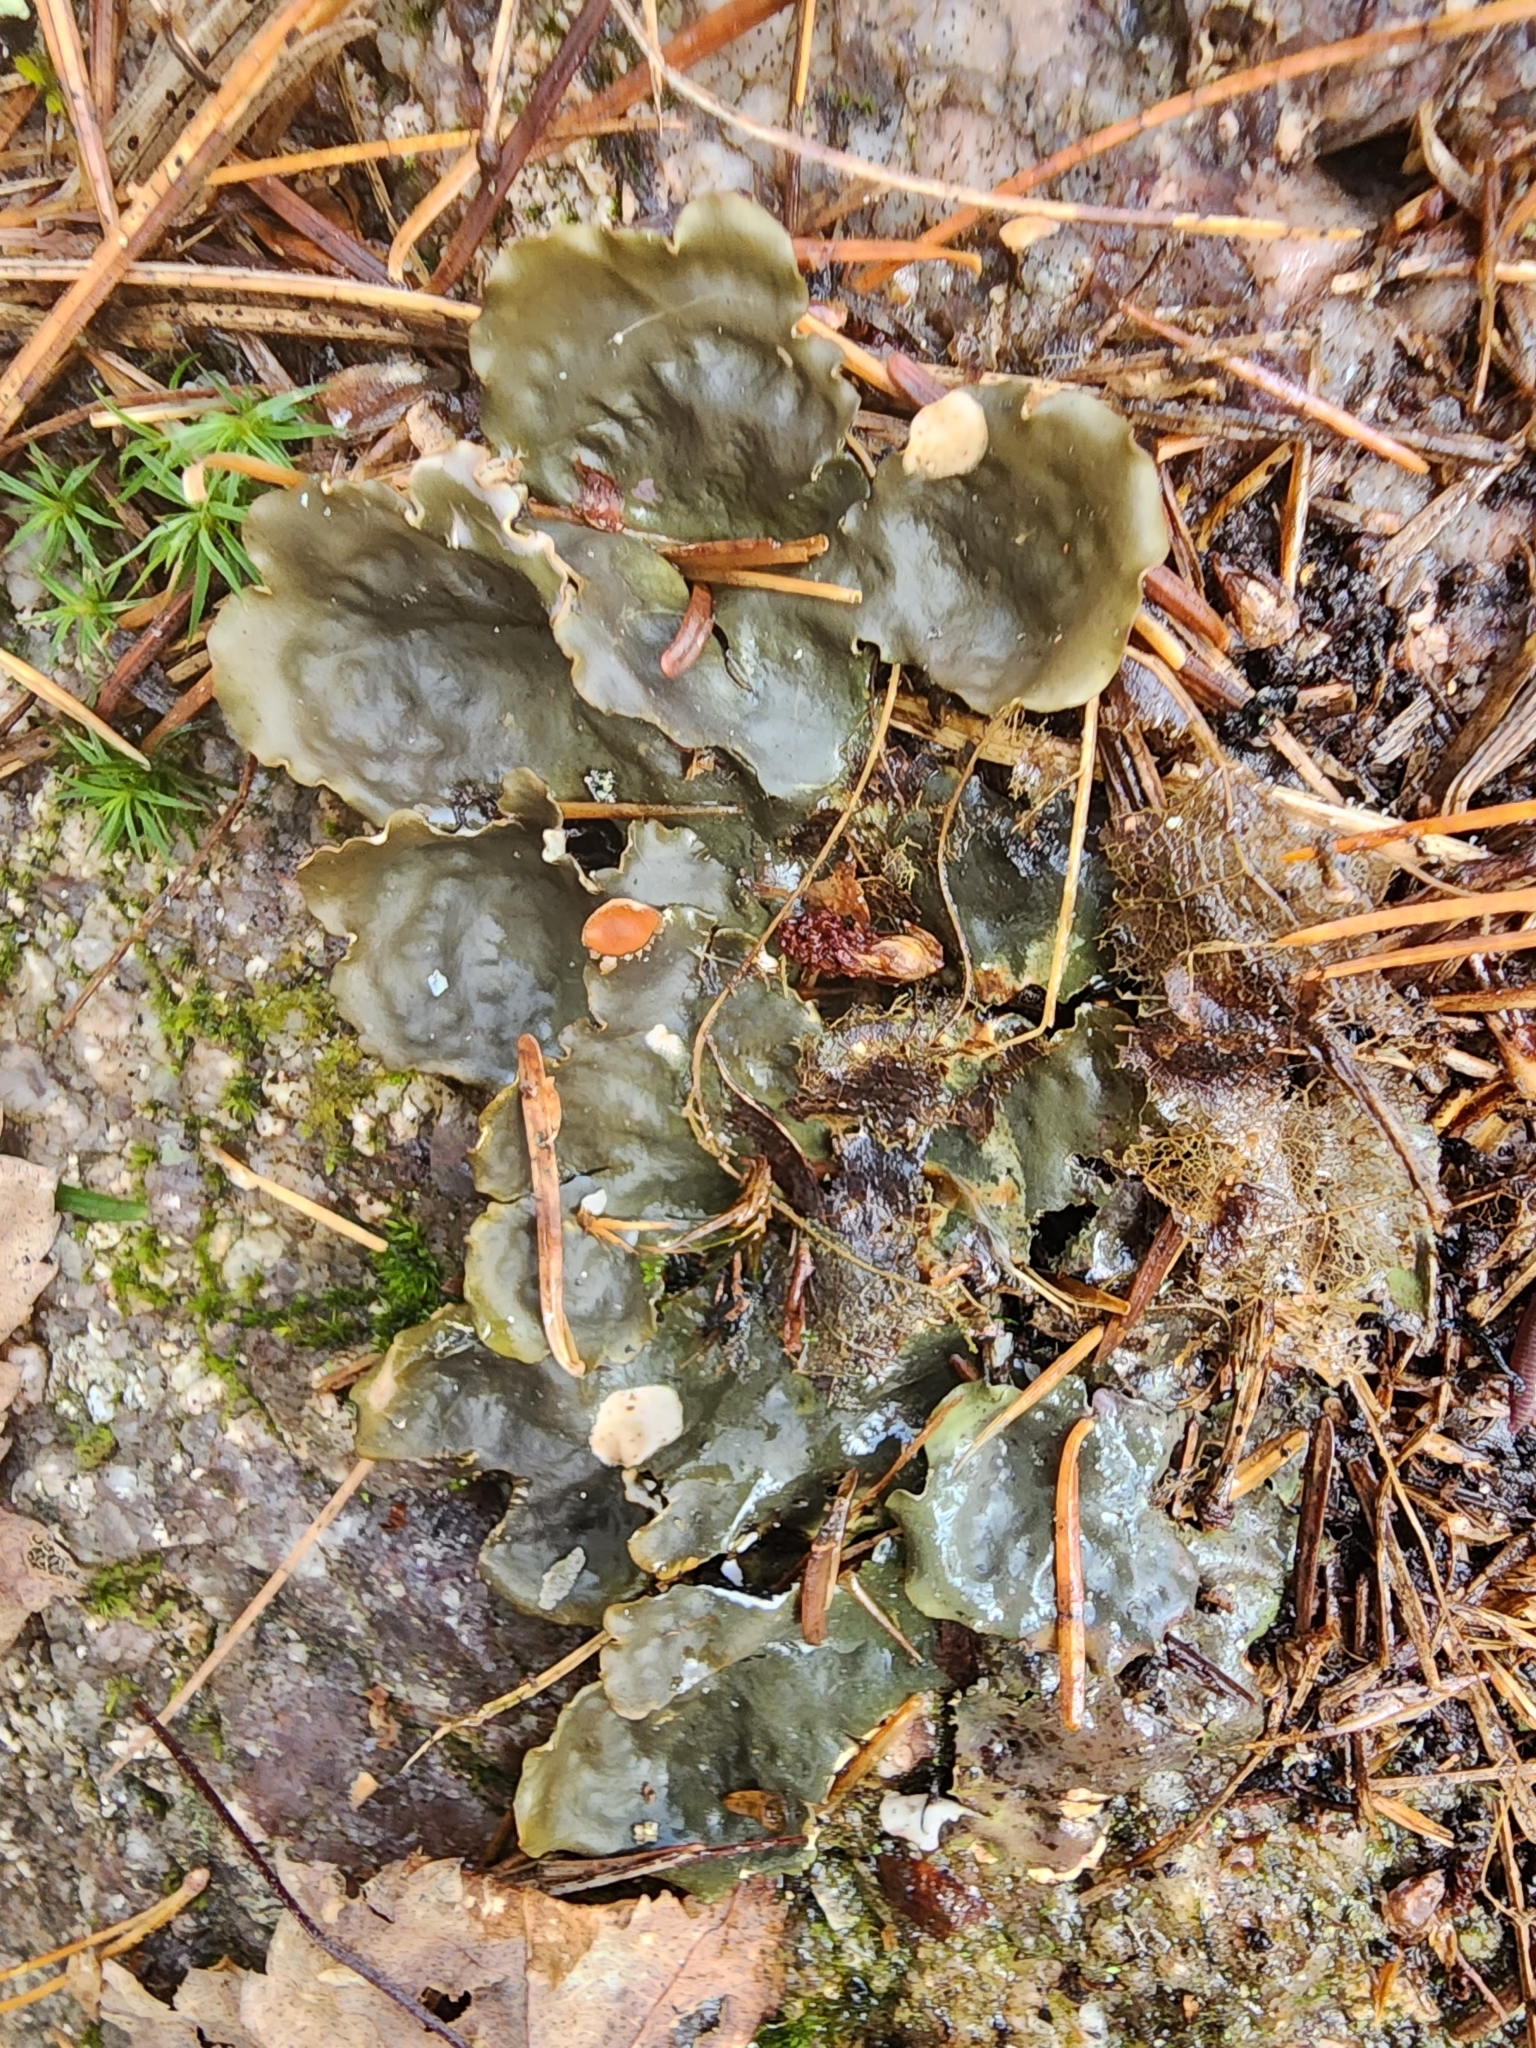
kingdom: Fungi
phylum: Ascomycota
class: Lecanoromycetes
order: Peltigerales
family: Peltigeraceae
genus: Peltigera
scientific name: Peltigera horizontalis
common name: Flat fruited pelt
